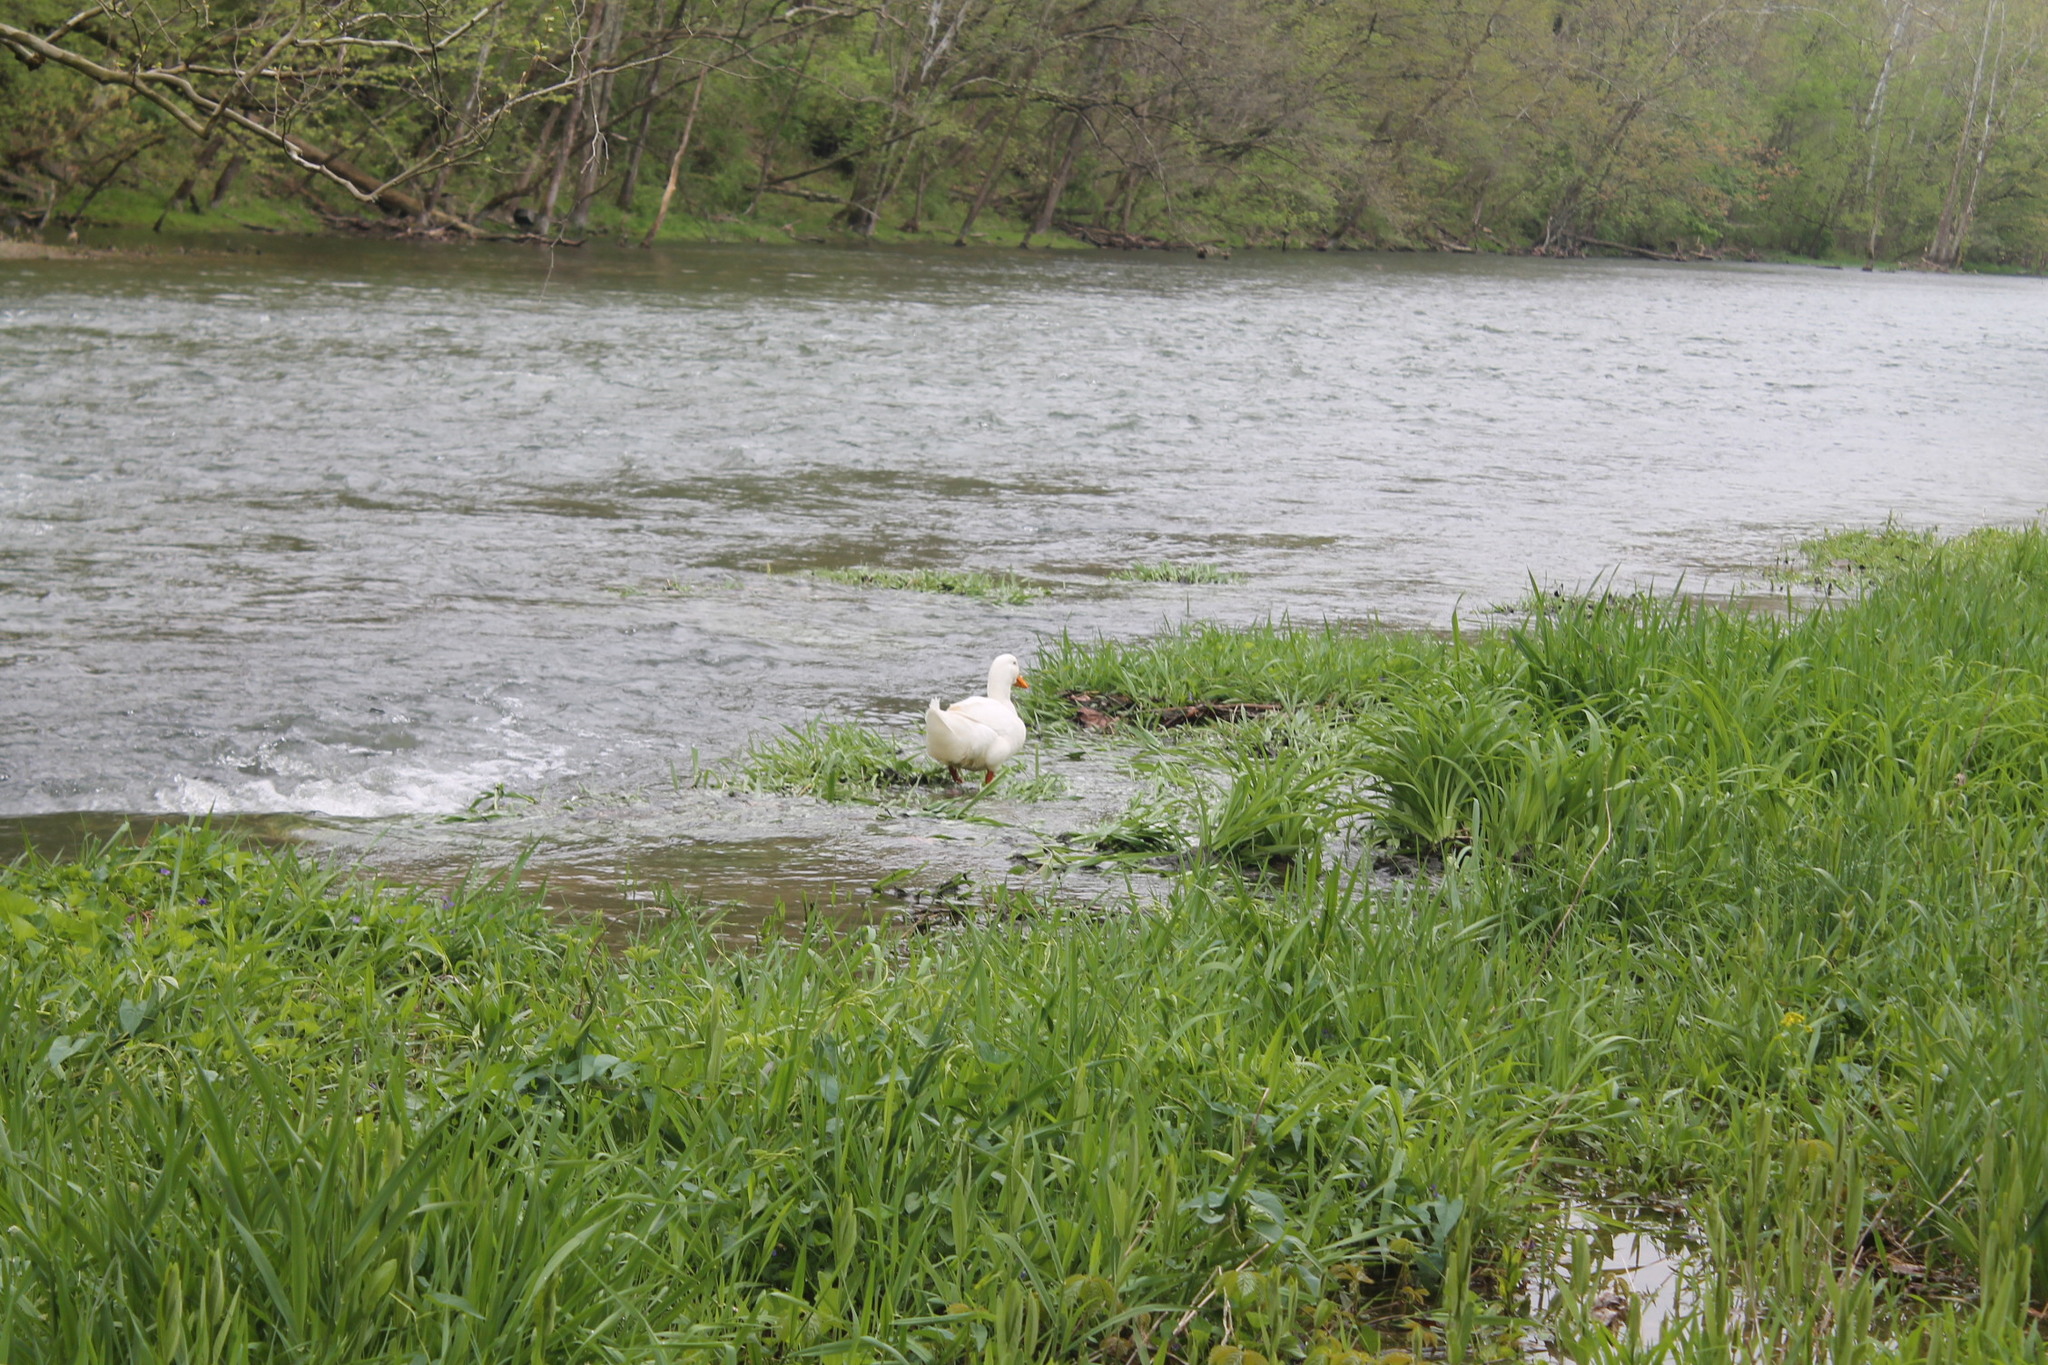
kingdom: Animalia
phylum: Chordata
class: Aves
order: Anseriformes
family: Anatidae
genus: Anas
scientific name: Anas platyrhynchos
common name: Mallard
